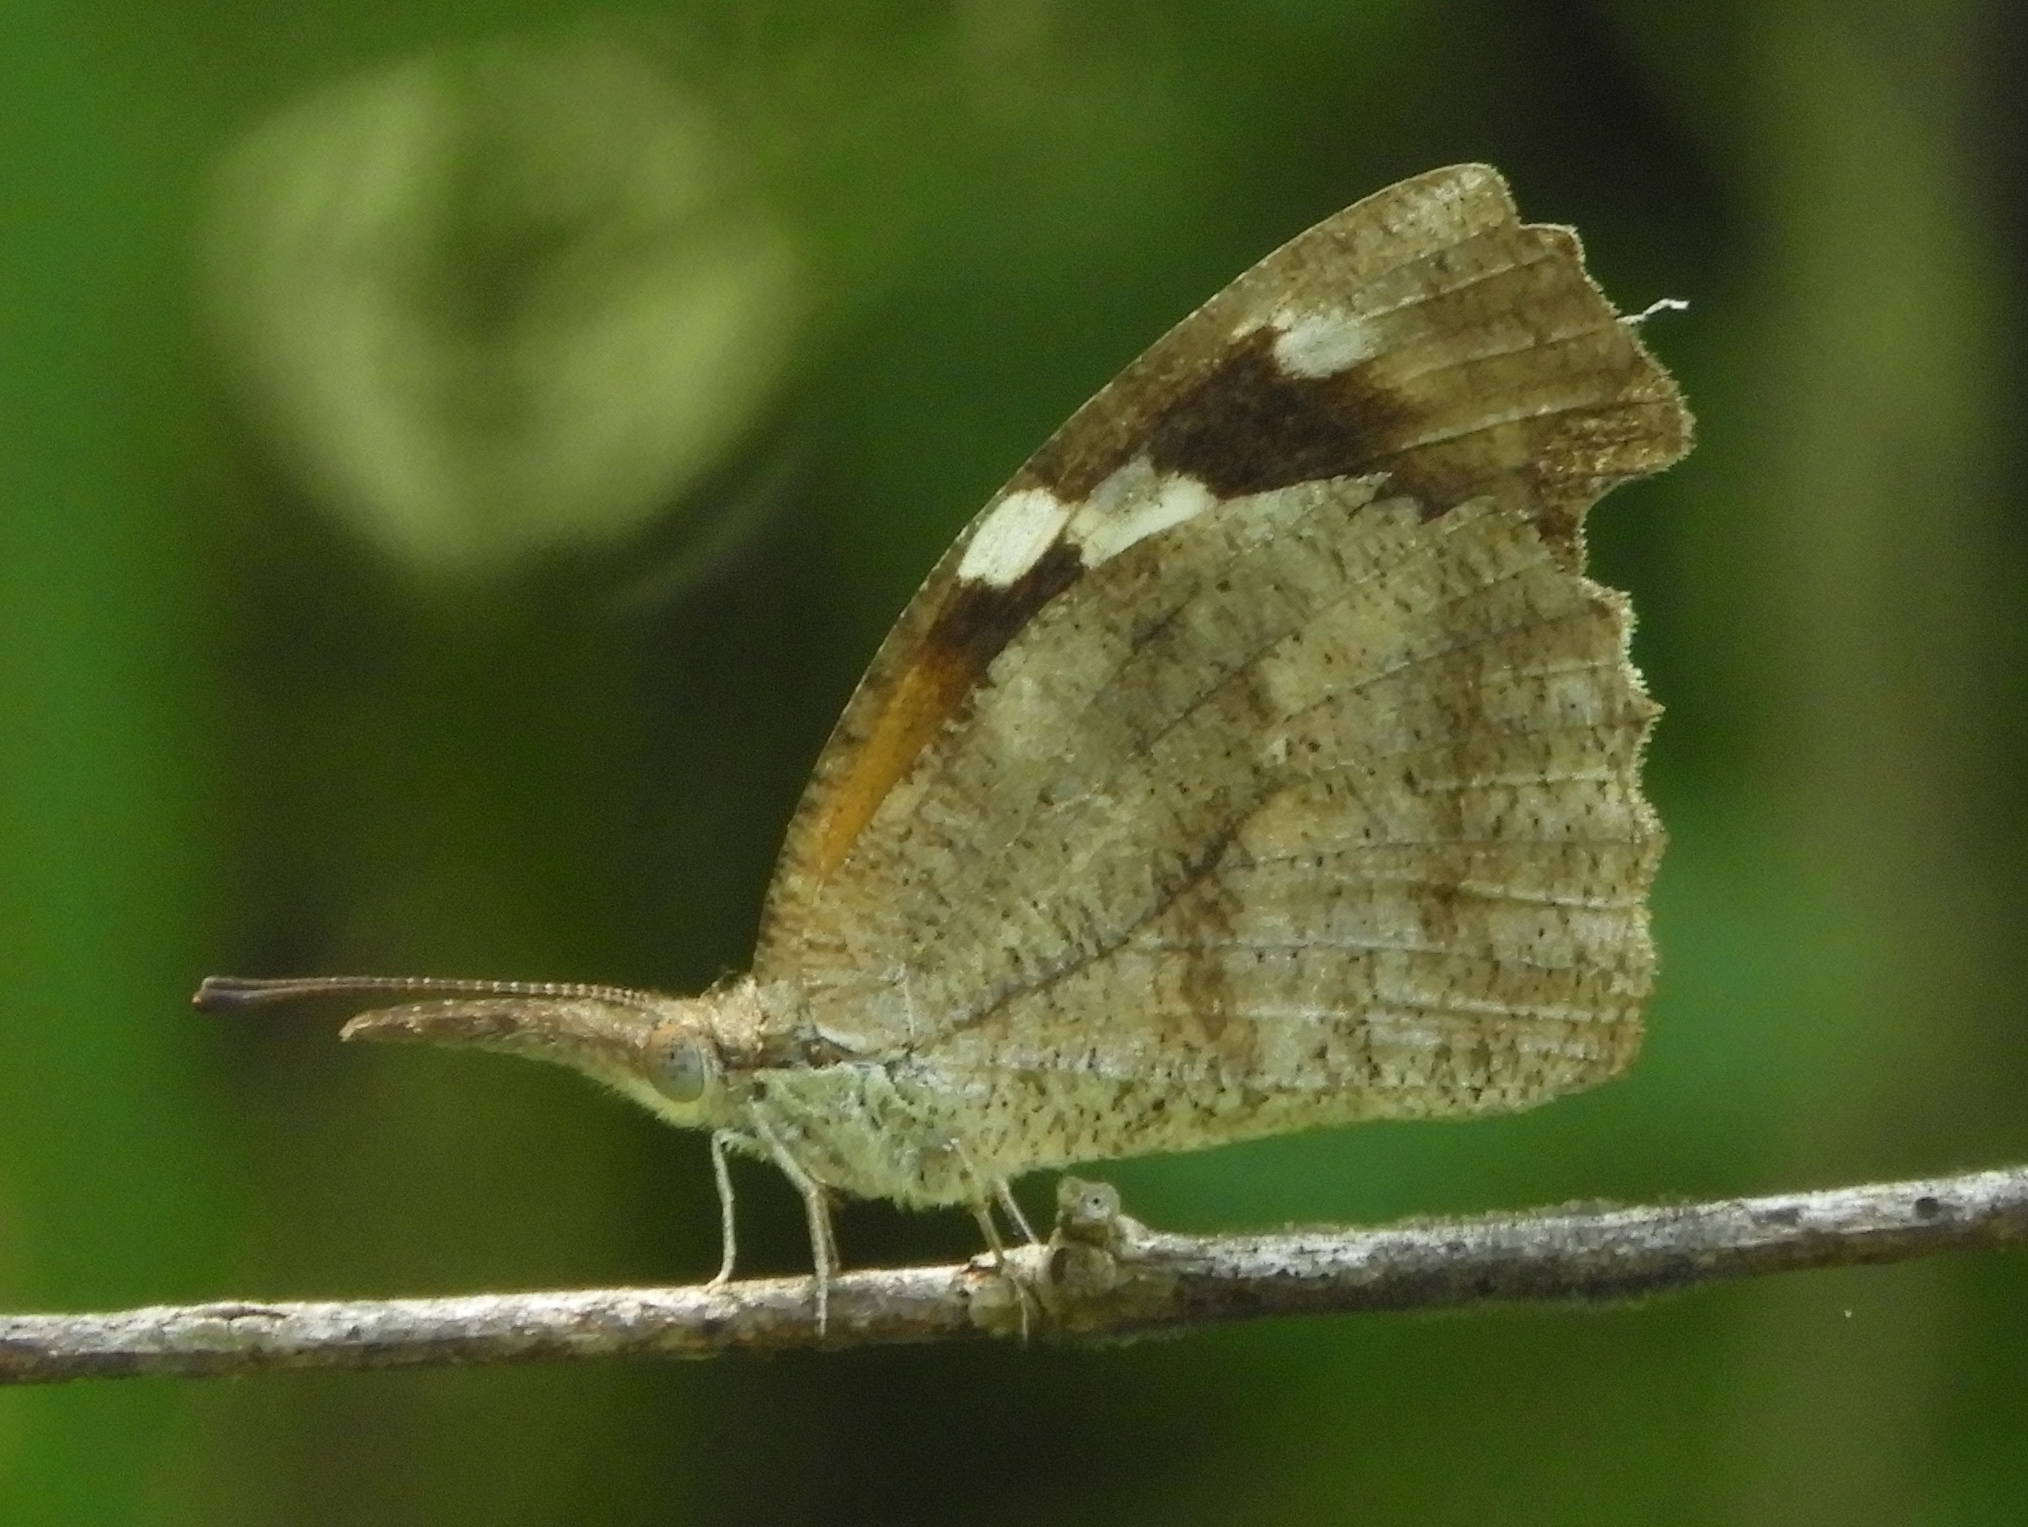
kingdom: Animalia
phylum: Arthropoda
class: Insecta
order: Lepidoptera
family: Nymphalidae
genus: Libytheana
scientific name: Libytheana carinenta
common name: American snout
